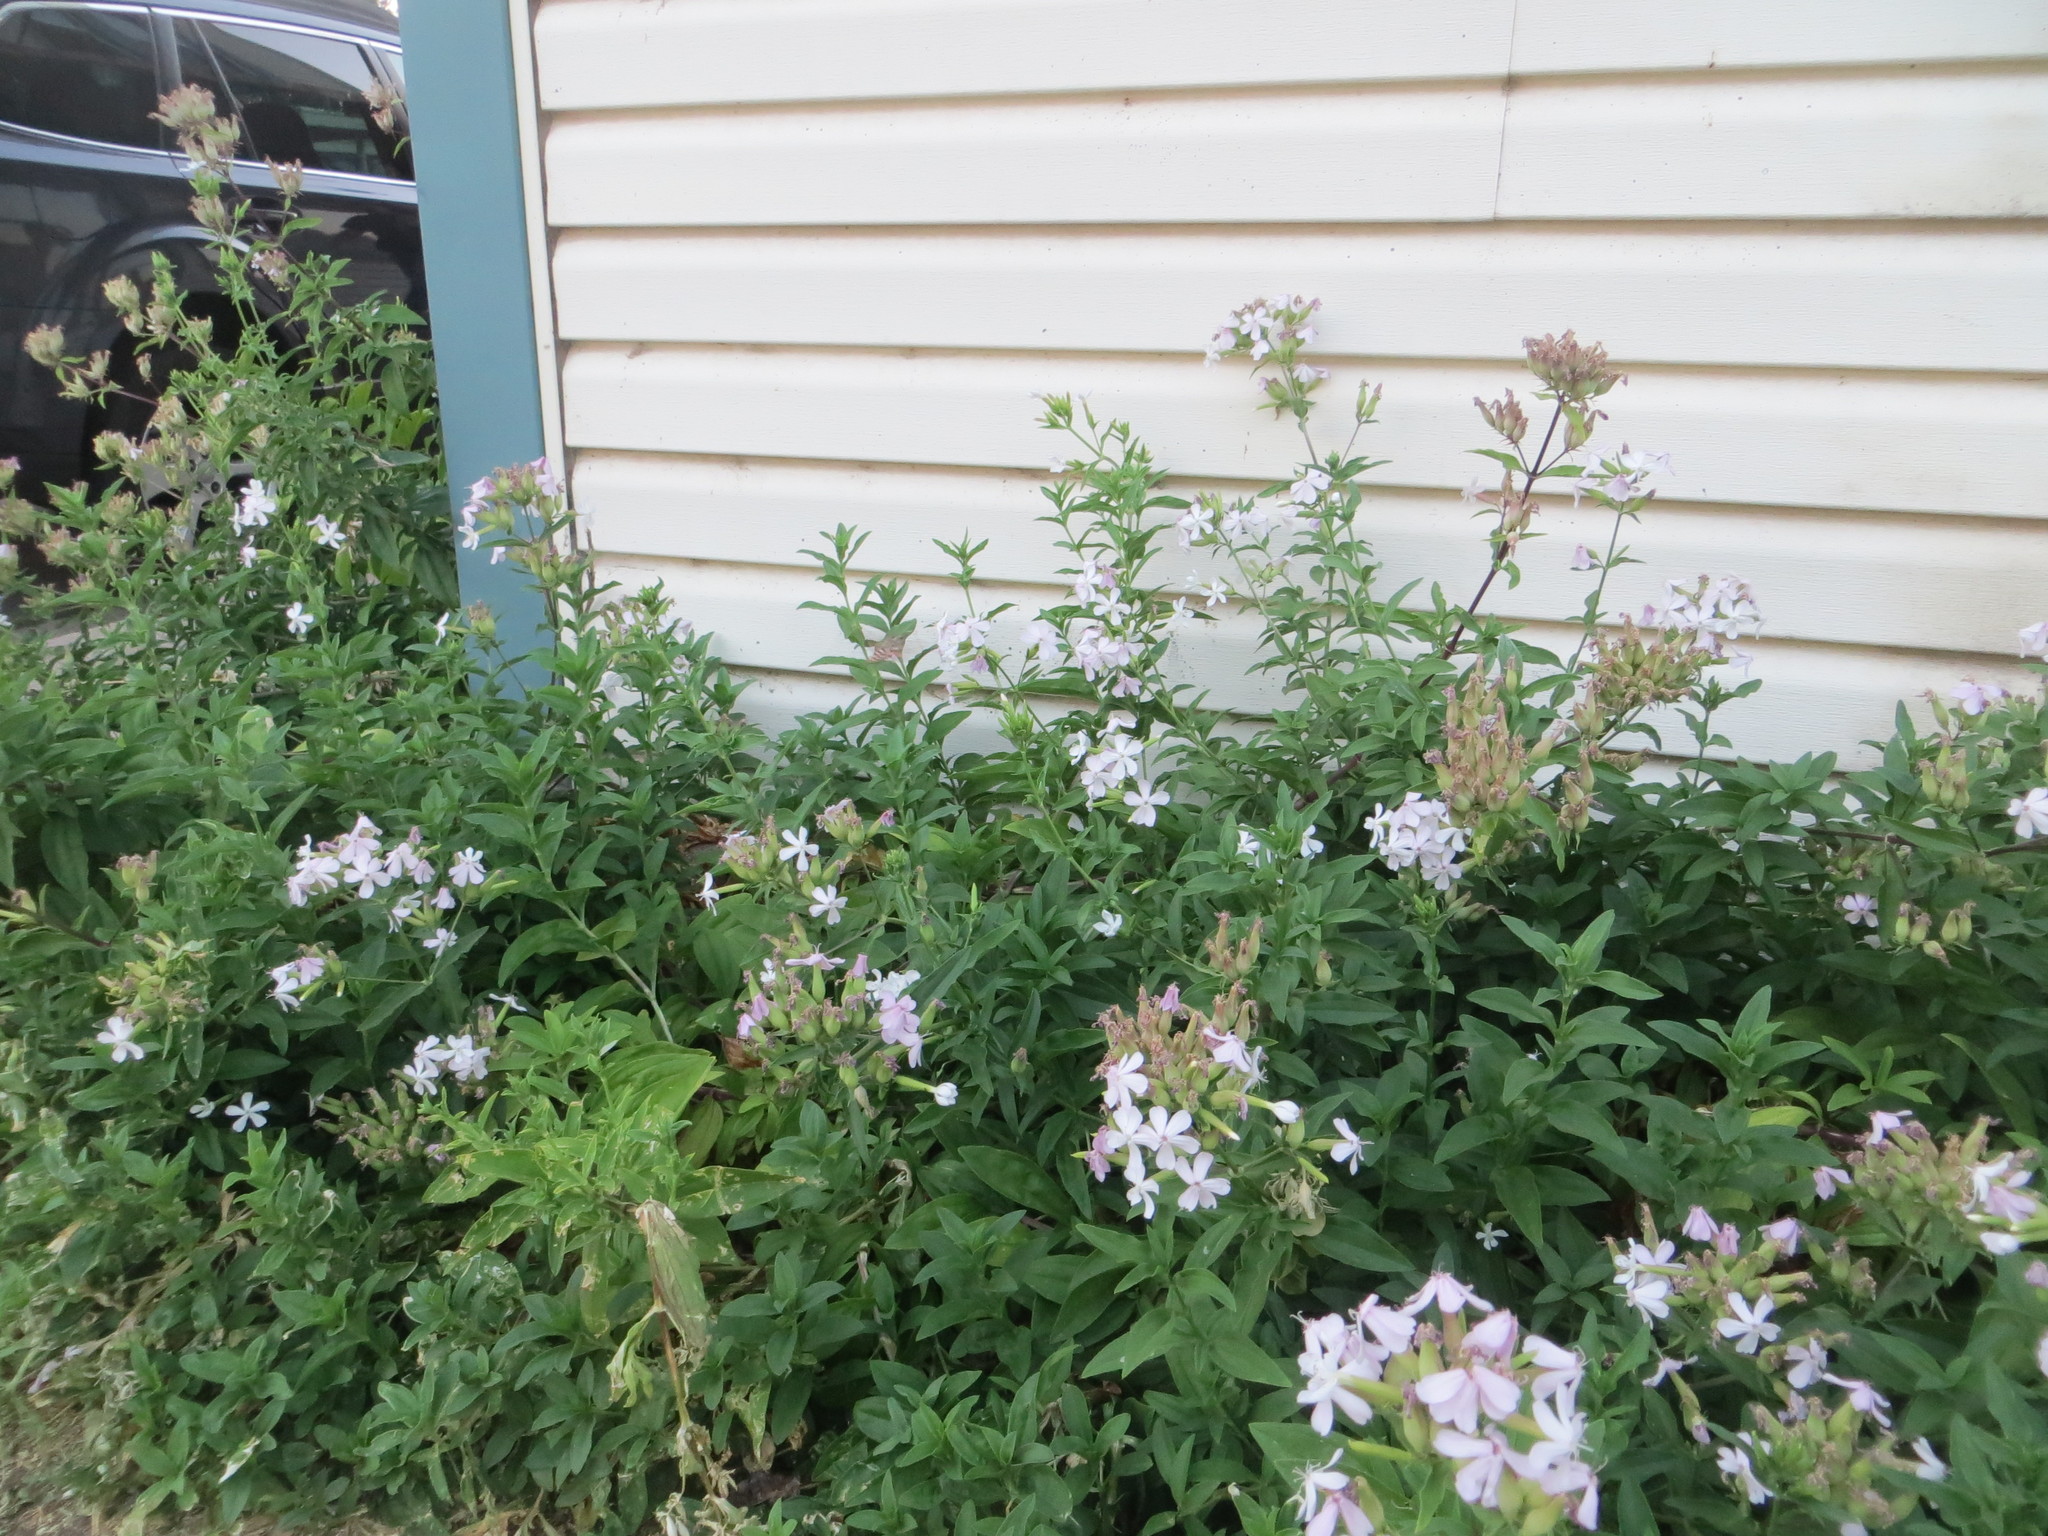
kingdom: Plantae
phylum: Tracheophyta
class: Magnoliopsida
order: Caryophyllales
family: Caryophyllaceae
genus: Saponaria
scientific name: Saponaria officinalis
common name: Soapwort
